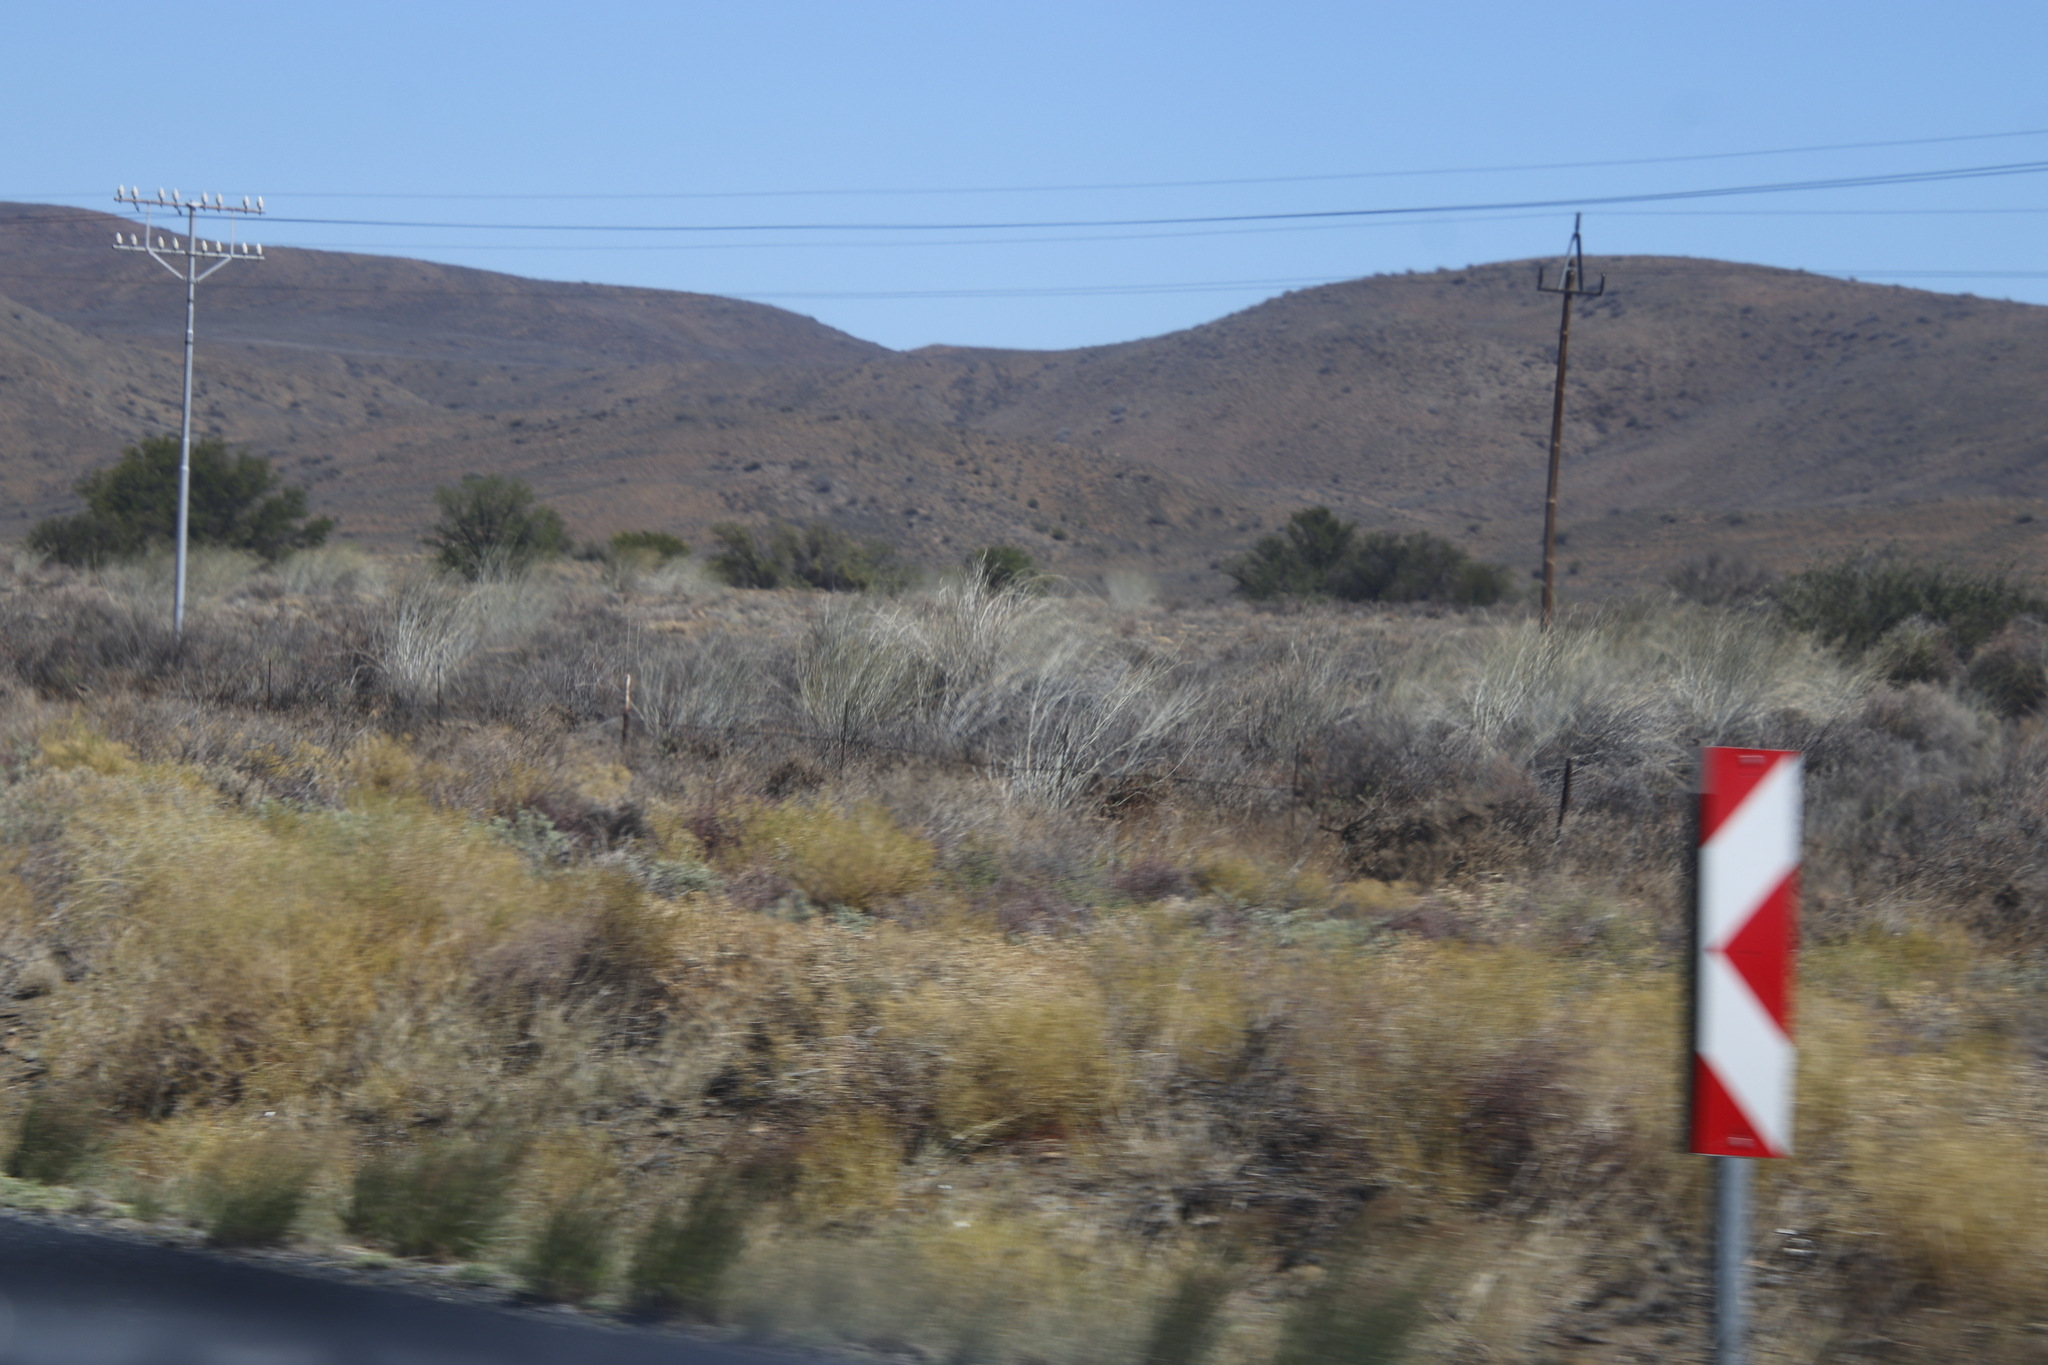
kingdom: Plantae
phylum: Tracheophyta
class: Magnoliopsida
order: Gentianales
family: Apocynaceae
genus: Gomphocarpus
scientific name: Gomphocarpus filiformis
